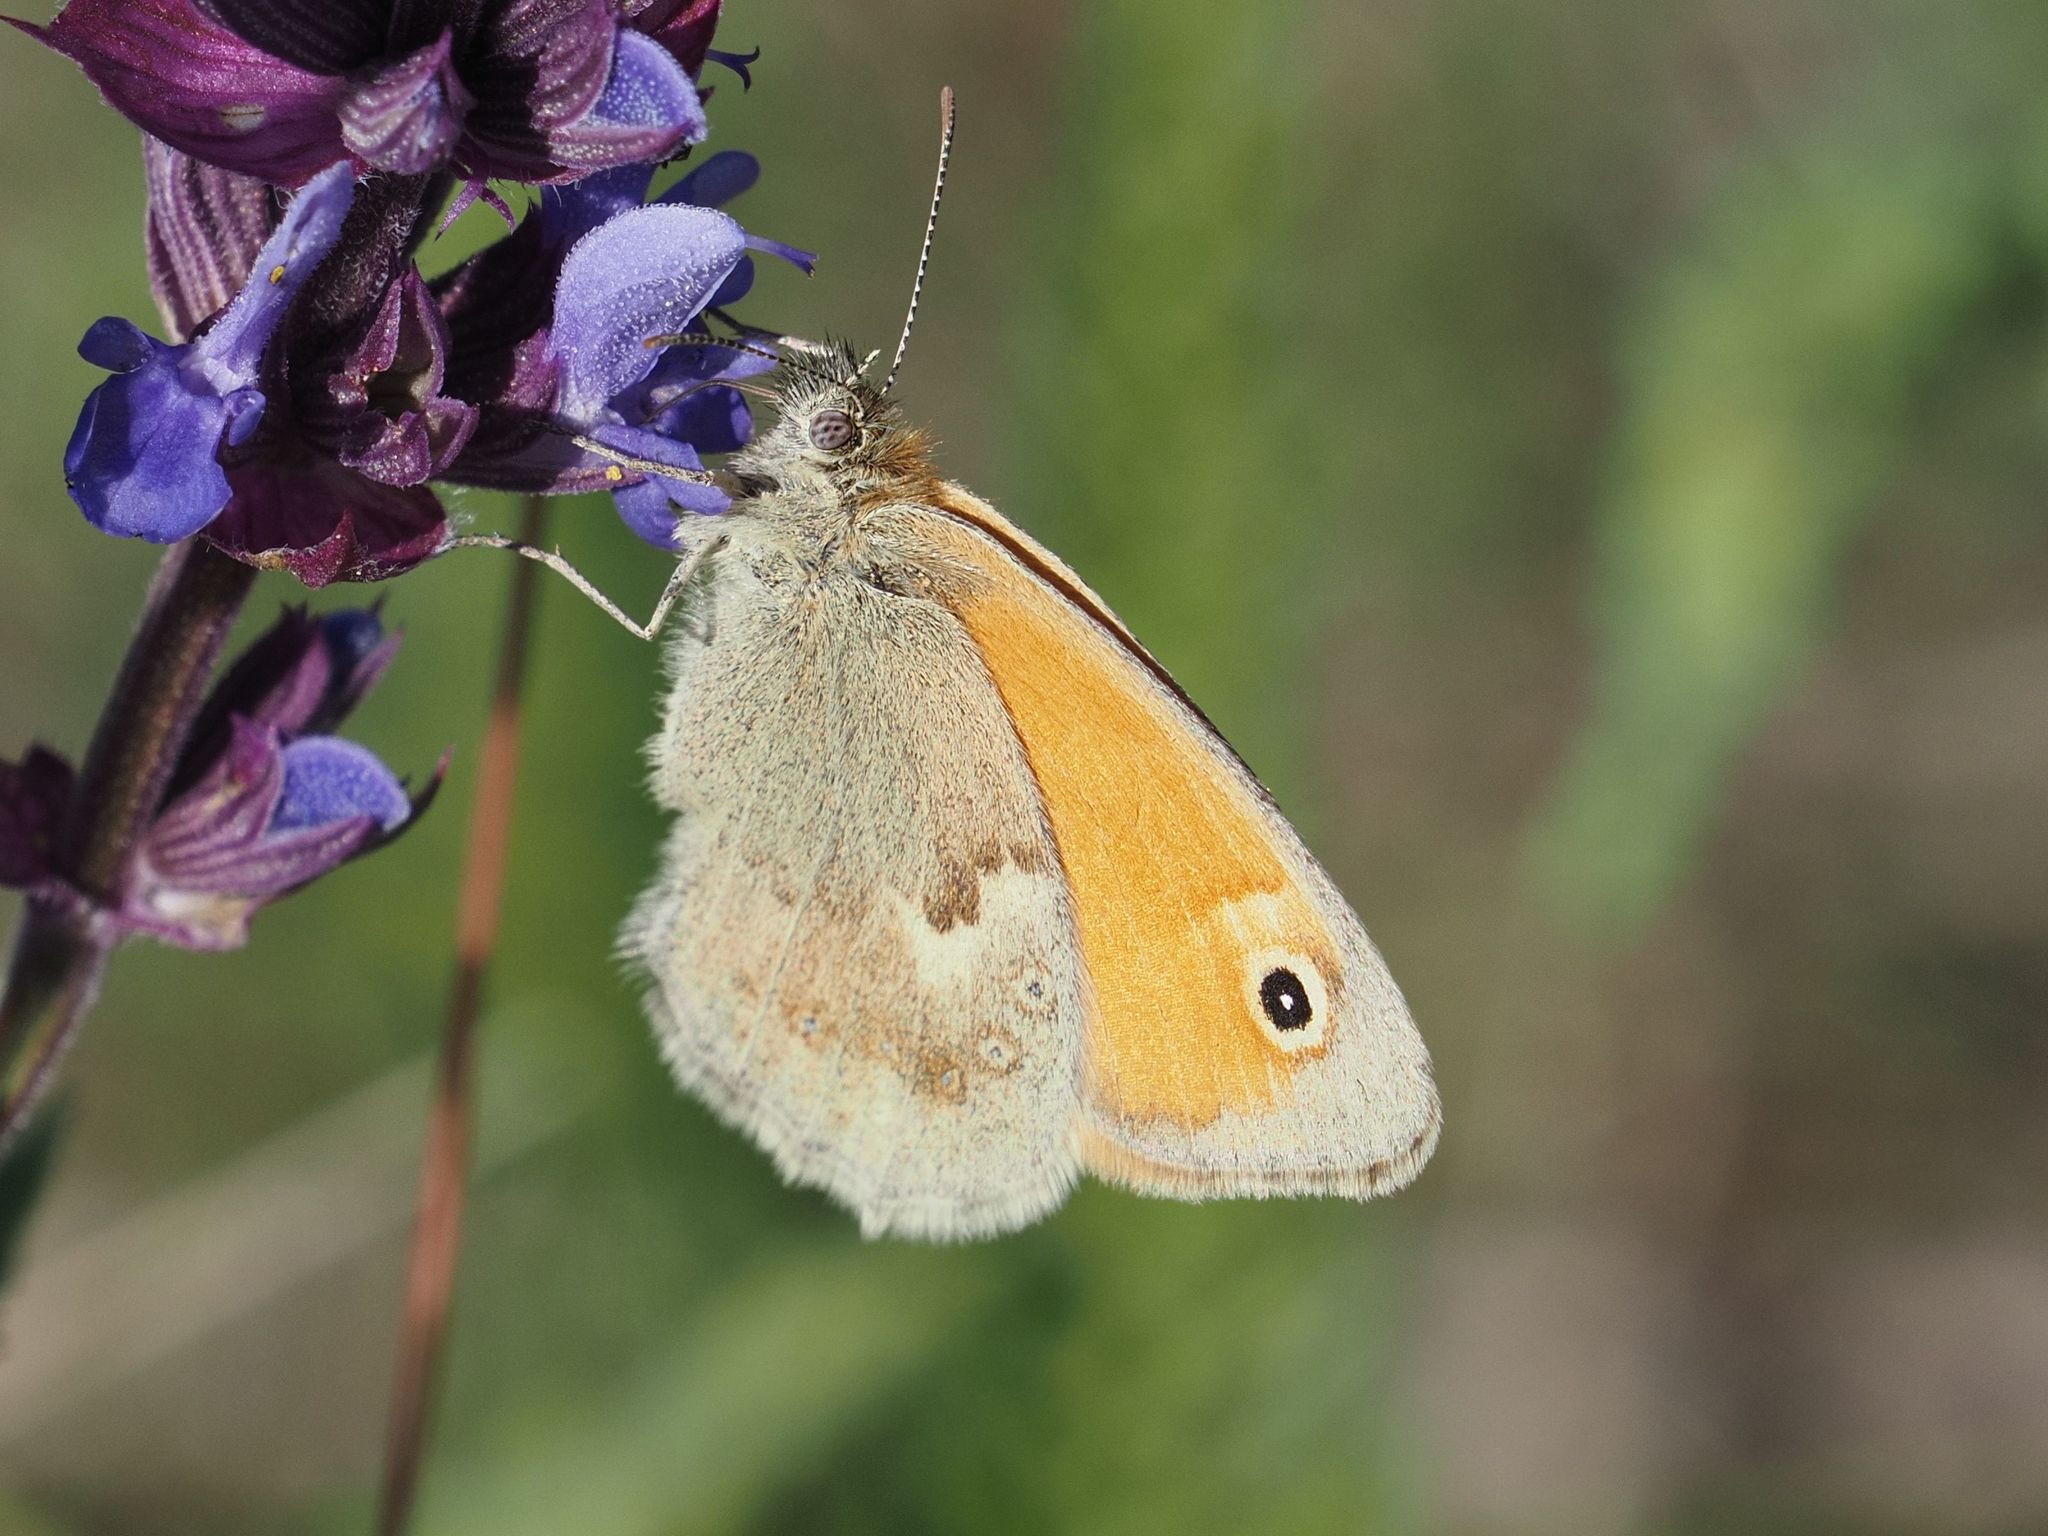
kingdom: Animalia
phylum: Arthropoda
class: Insecta
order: Lepidoptera
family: Nymphalidae
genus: Coenonympha
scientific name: Coenonympha pamphilus
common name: Small heath
